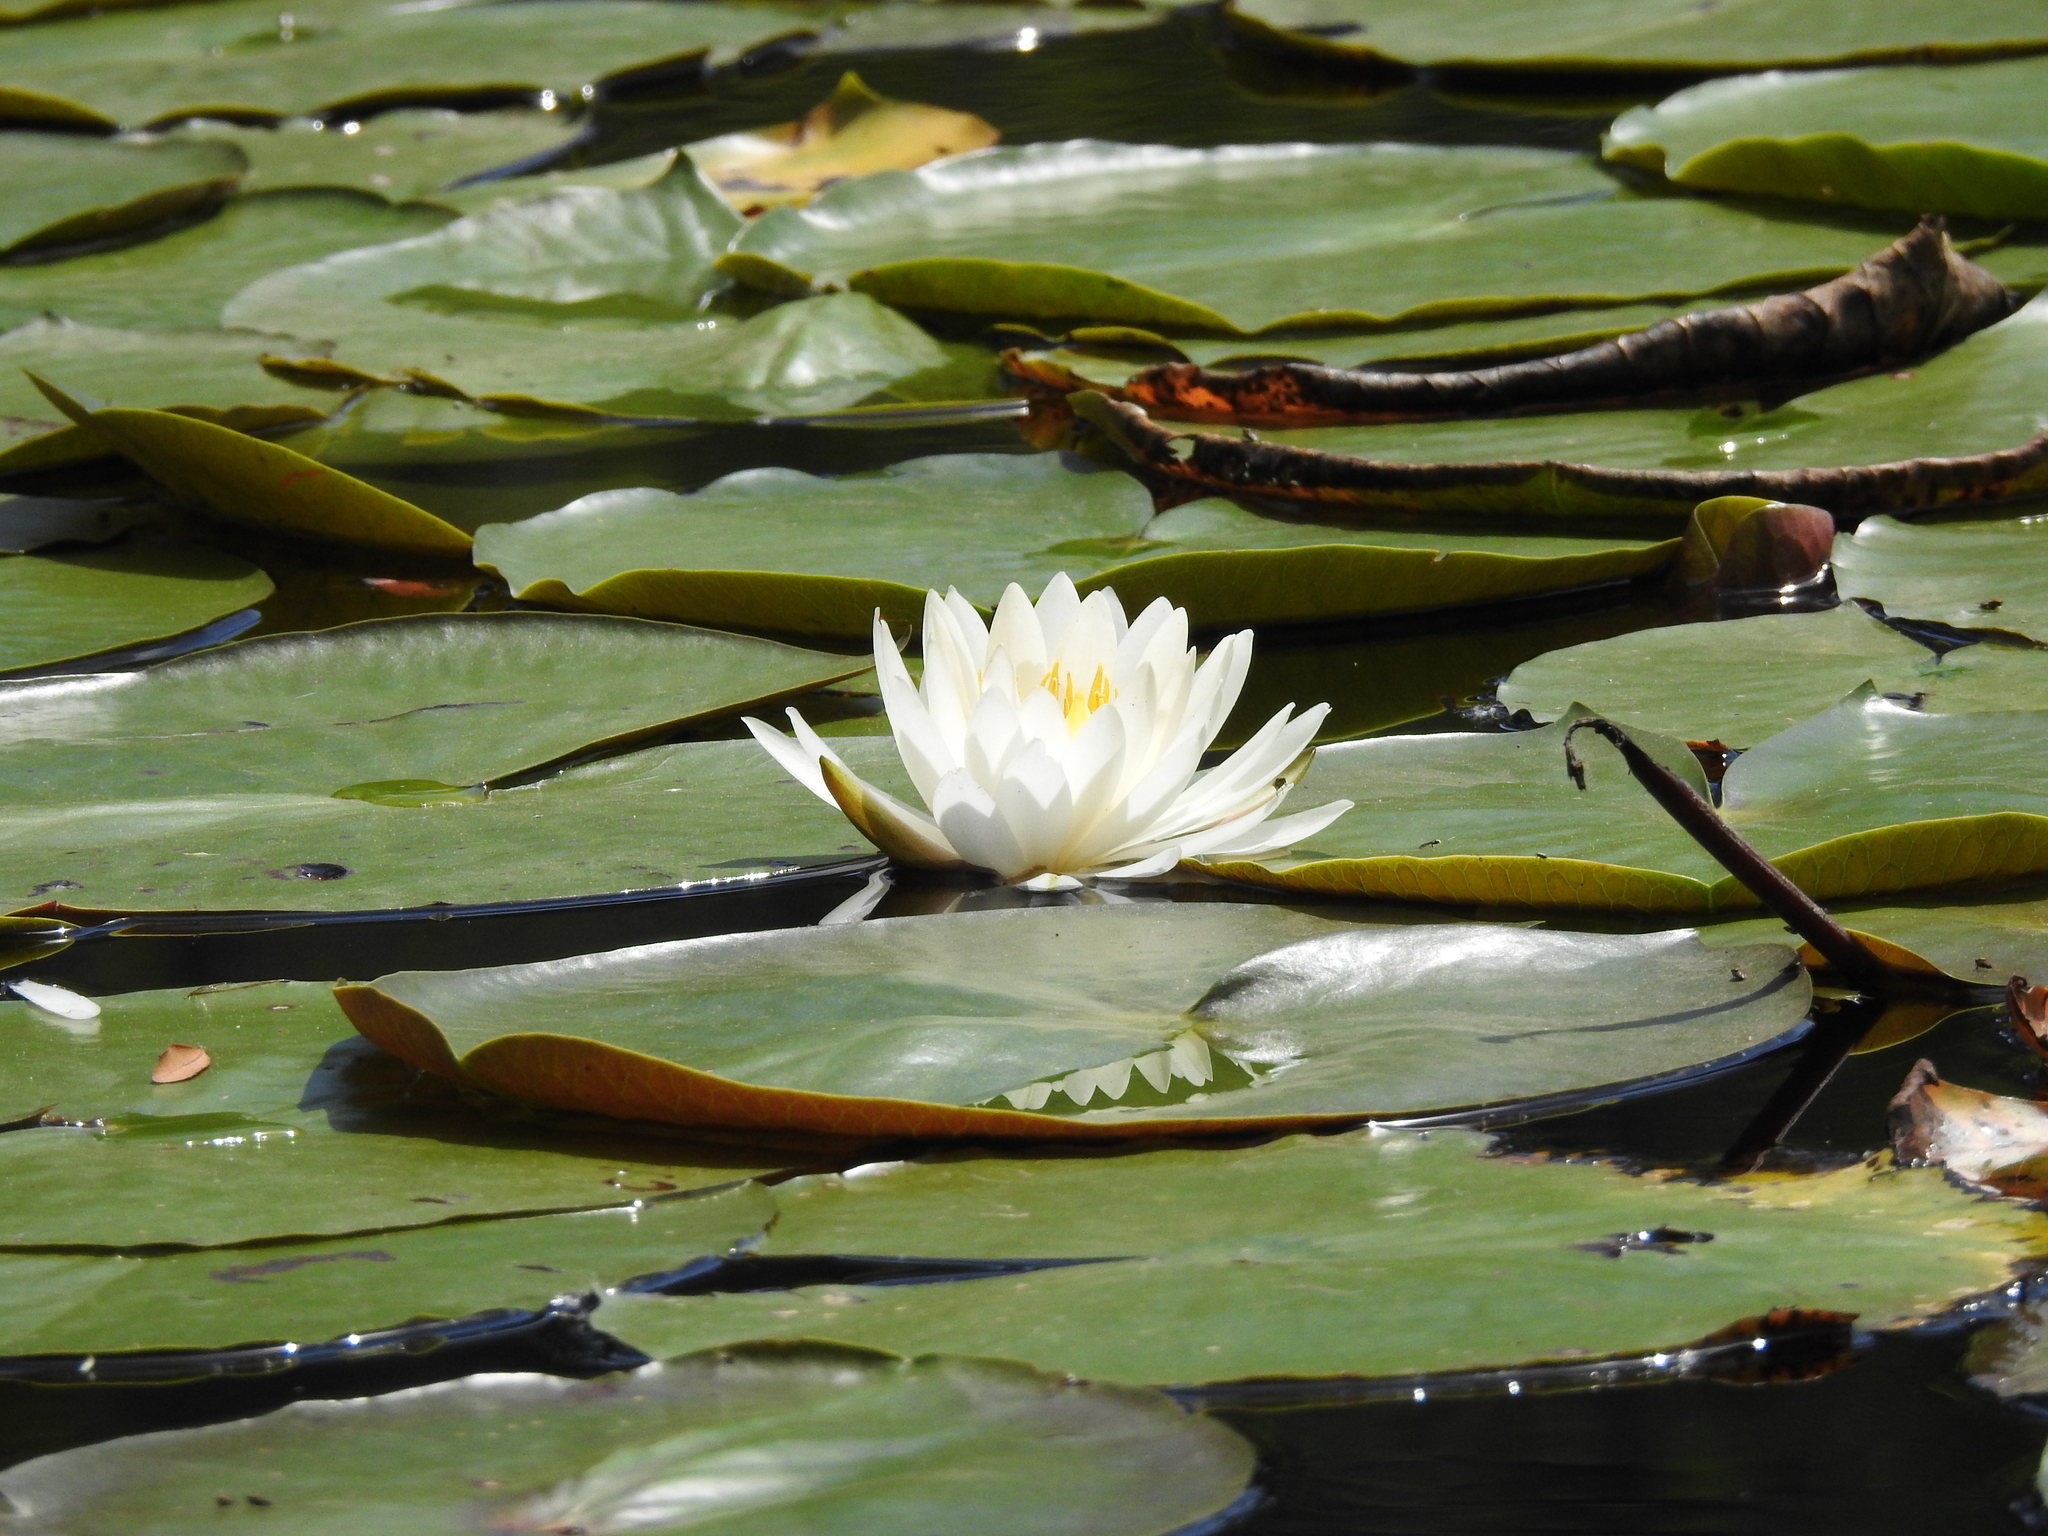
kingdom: Plantae
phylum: Tracheophyta
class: Magnoliopsida
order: Nymphaeales
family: Nymphaeaceae
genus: Nymphaea
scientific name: Nymphaea odorata
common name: Fragrant water-lily
